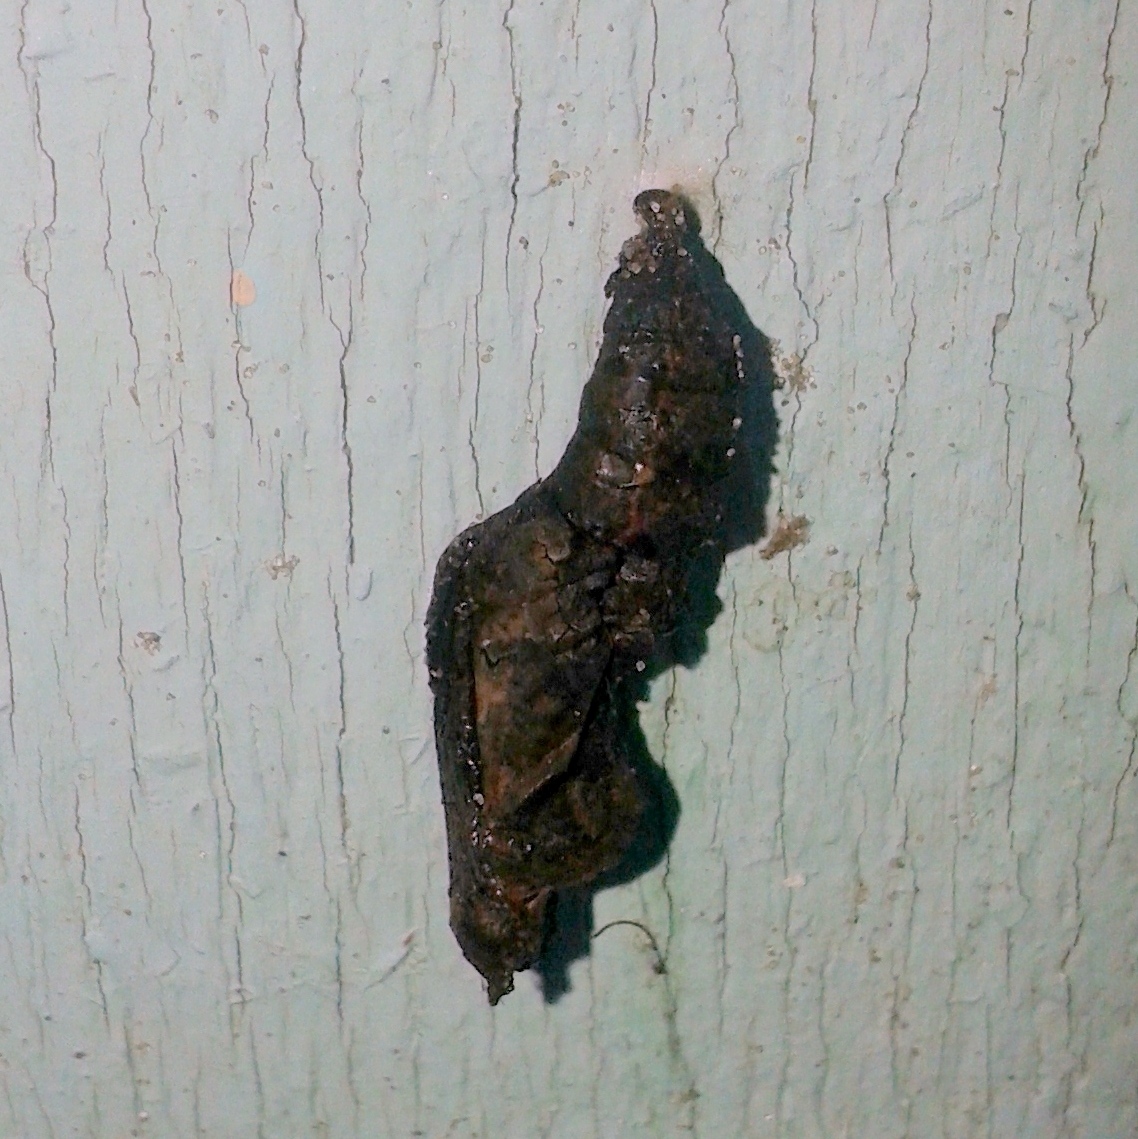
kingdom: Animalia
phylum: Arthropoda
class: Insecta
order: Lepidoptera
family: Nymphalidae
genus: Dione
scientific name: Dione vanillae
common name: Gulf fritillary
